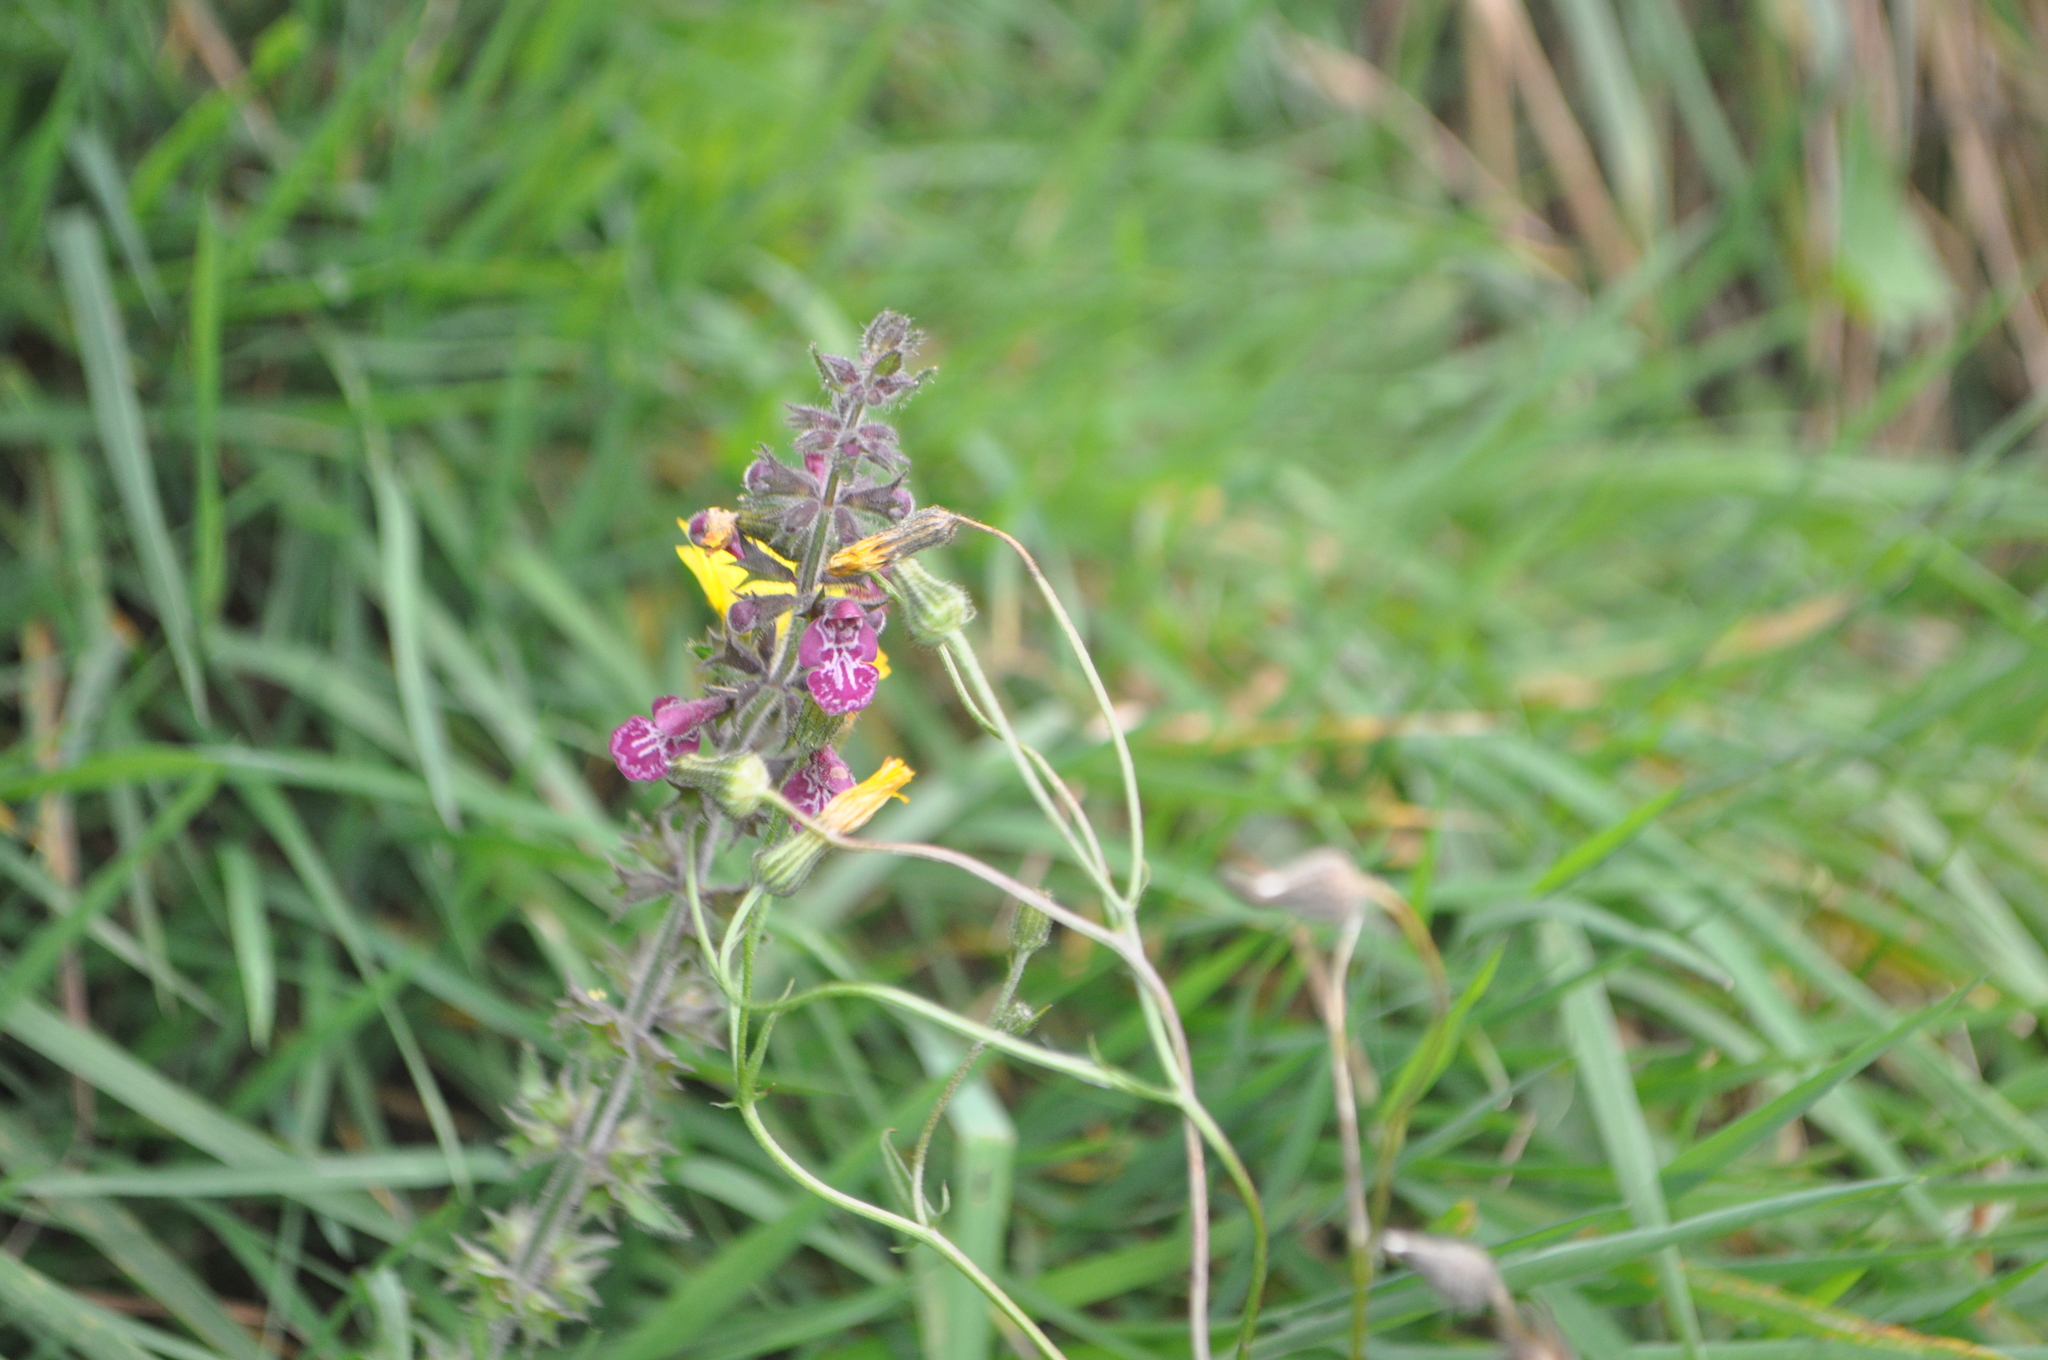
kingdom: Plantae
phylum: Tracheophyta
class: Magnoliopsida
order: Lamiales
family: Lamiaceae
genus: Stachys
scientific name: Stachys sylvatica
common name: Hedge woundwort
